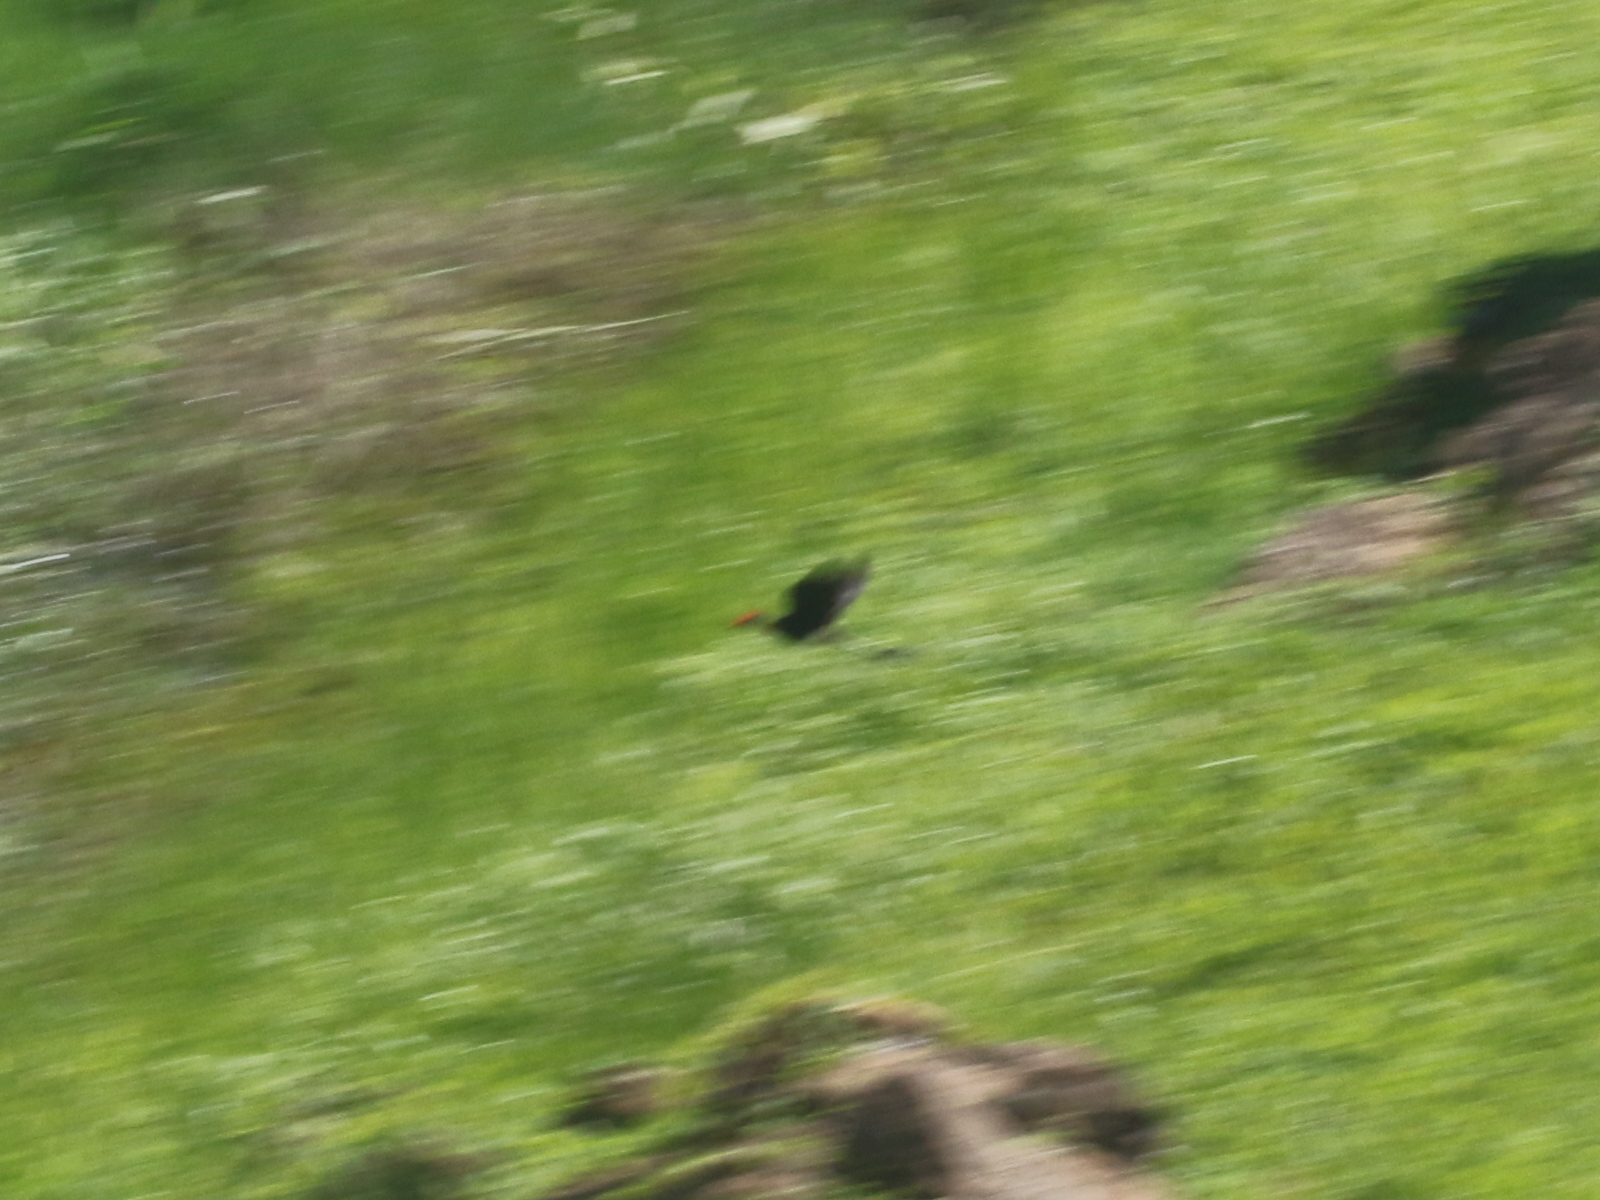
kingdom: Animalia
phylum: Chordata
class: Aves
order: Charadriiformes
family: Jacanidae
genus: Irediparra
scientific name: Irediparra gallinacea
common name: Comb-crested jacana
